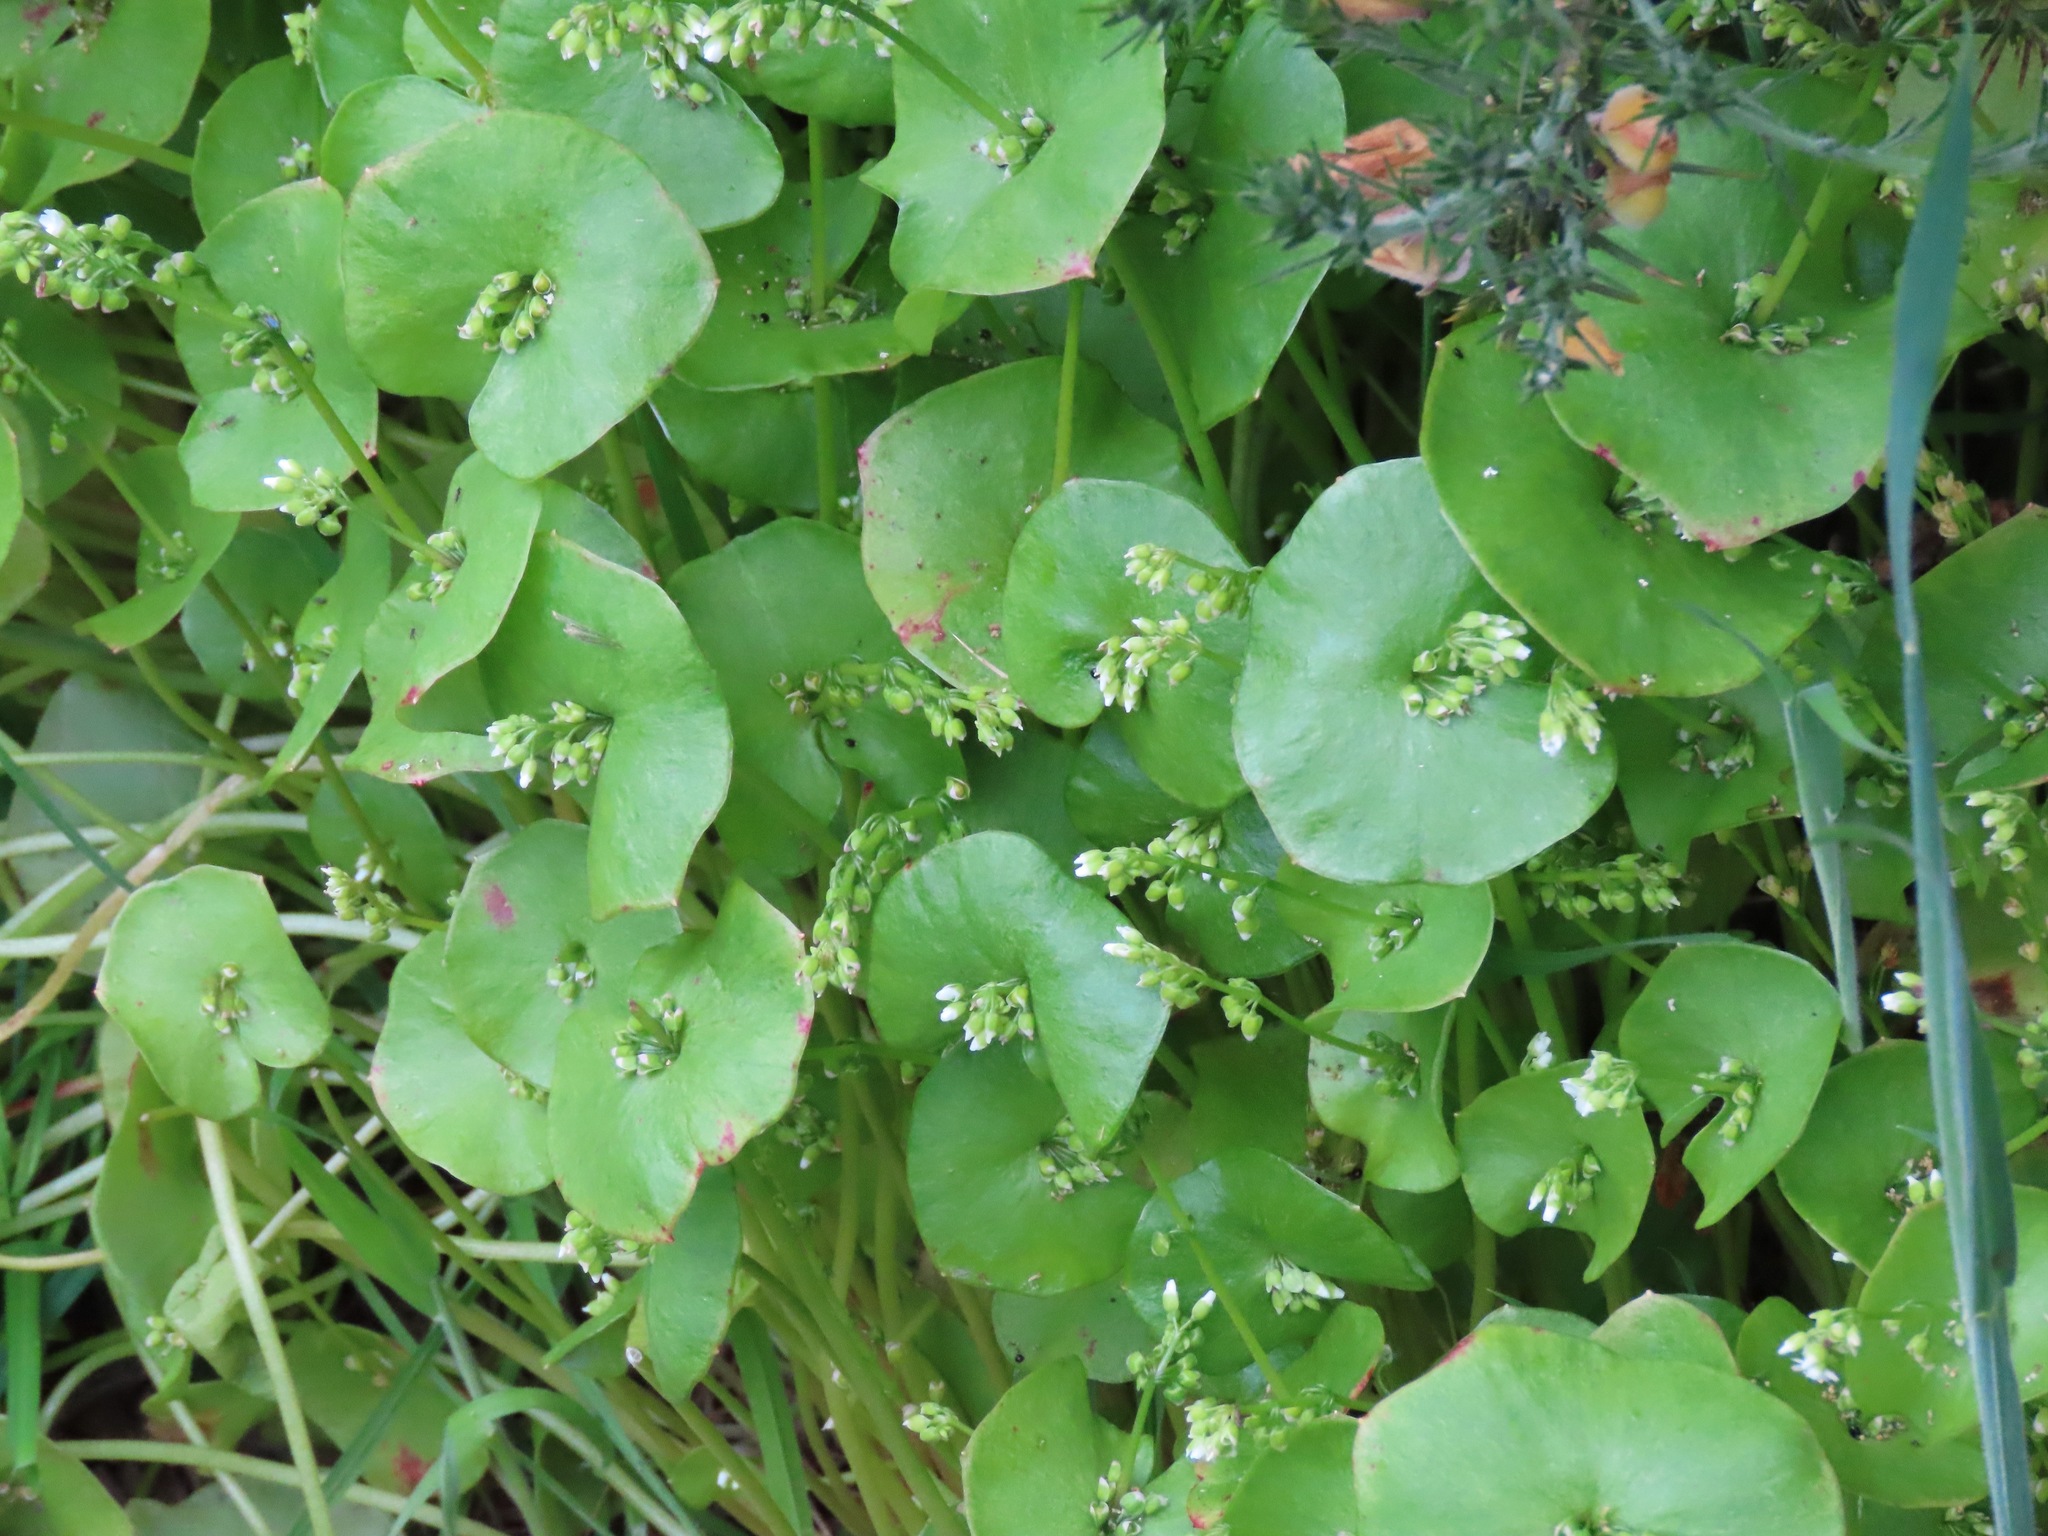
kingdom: Plantae
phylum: Tracheophyta
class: Magnoliopsida
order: Caryophyllales
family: Montiaceae
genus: Claytonia
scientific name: Claytonia perfoliata
